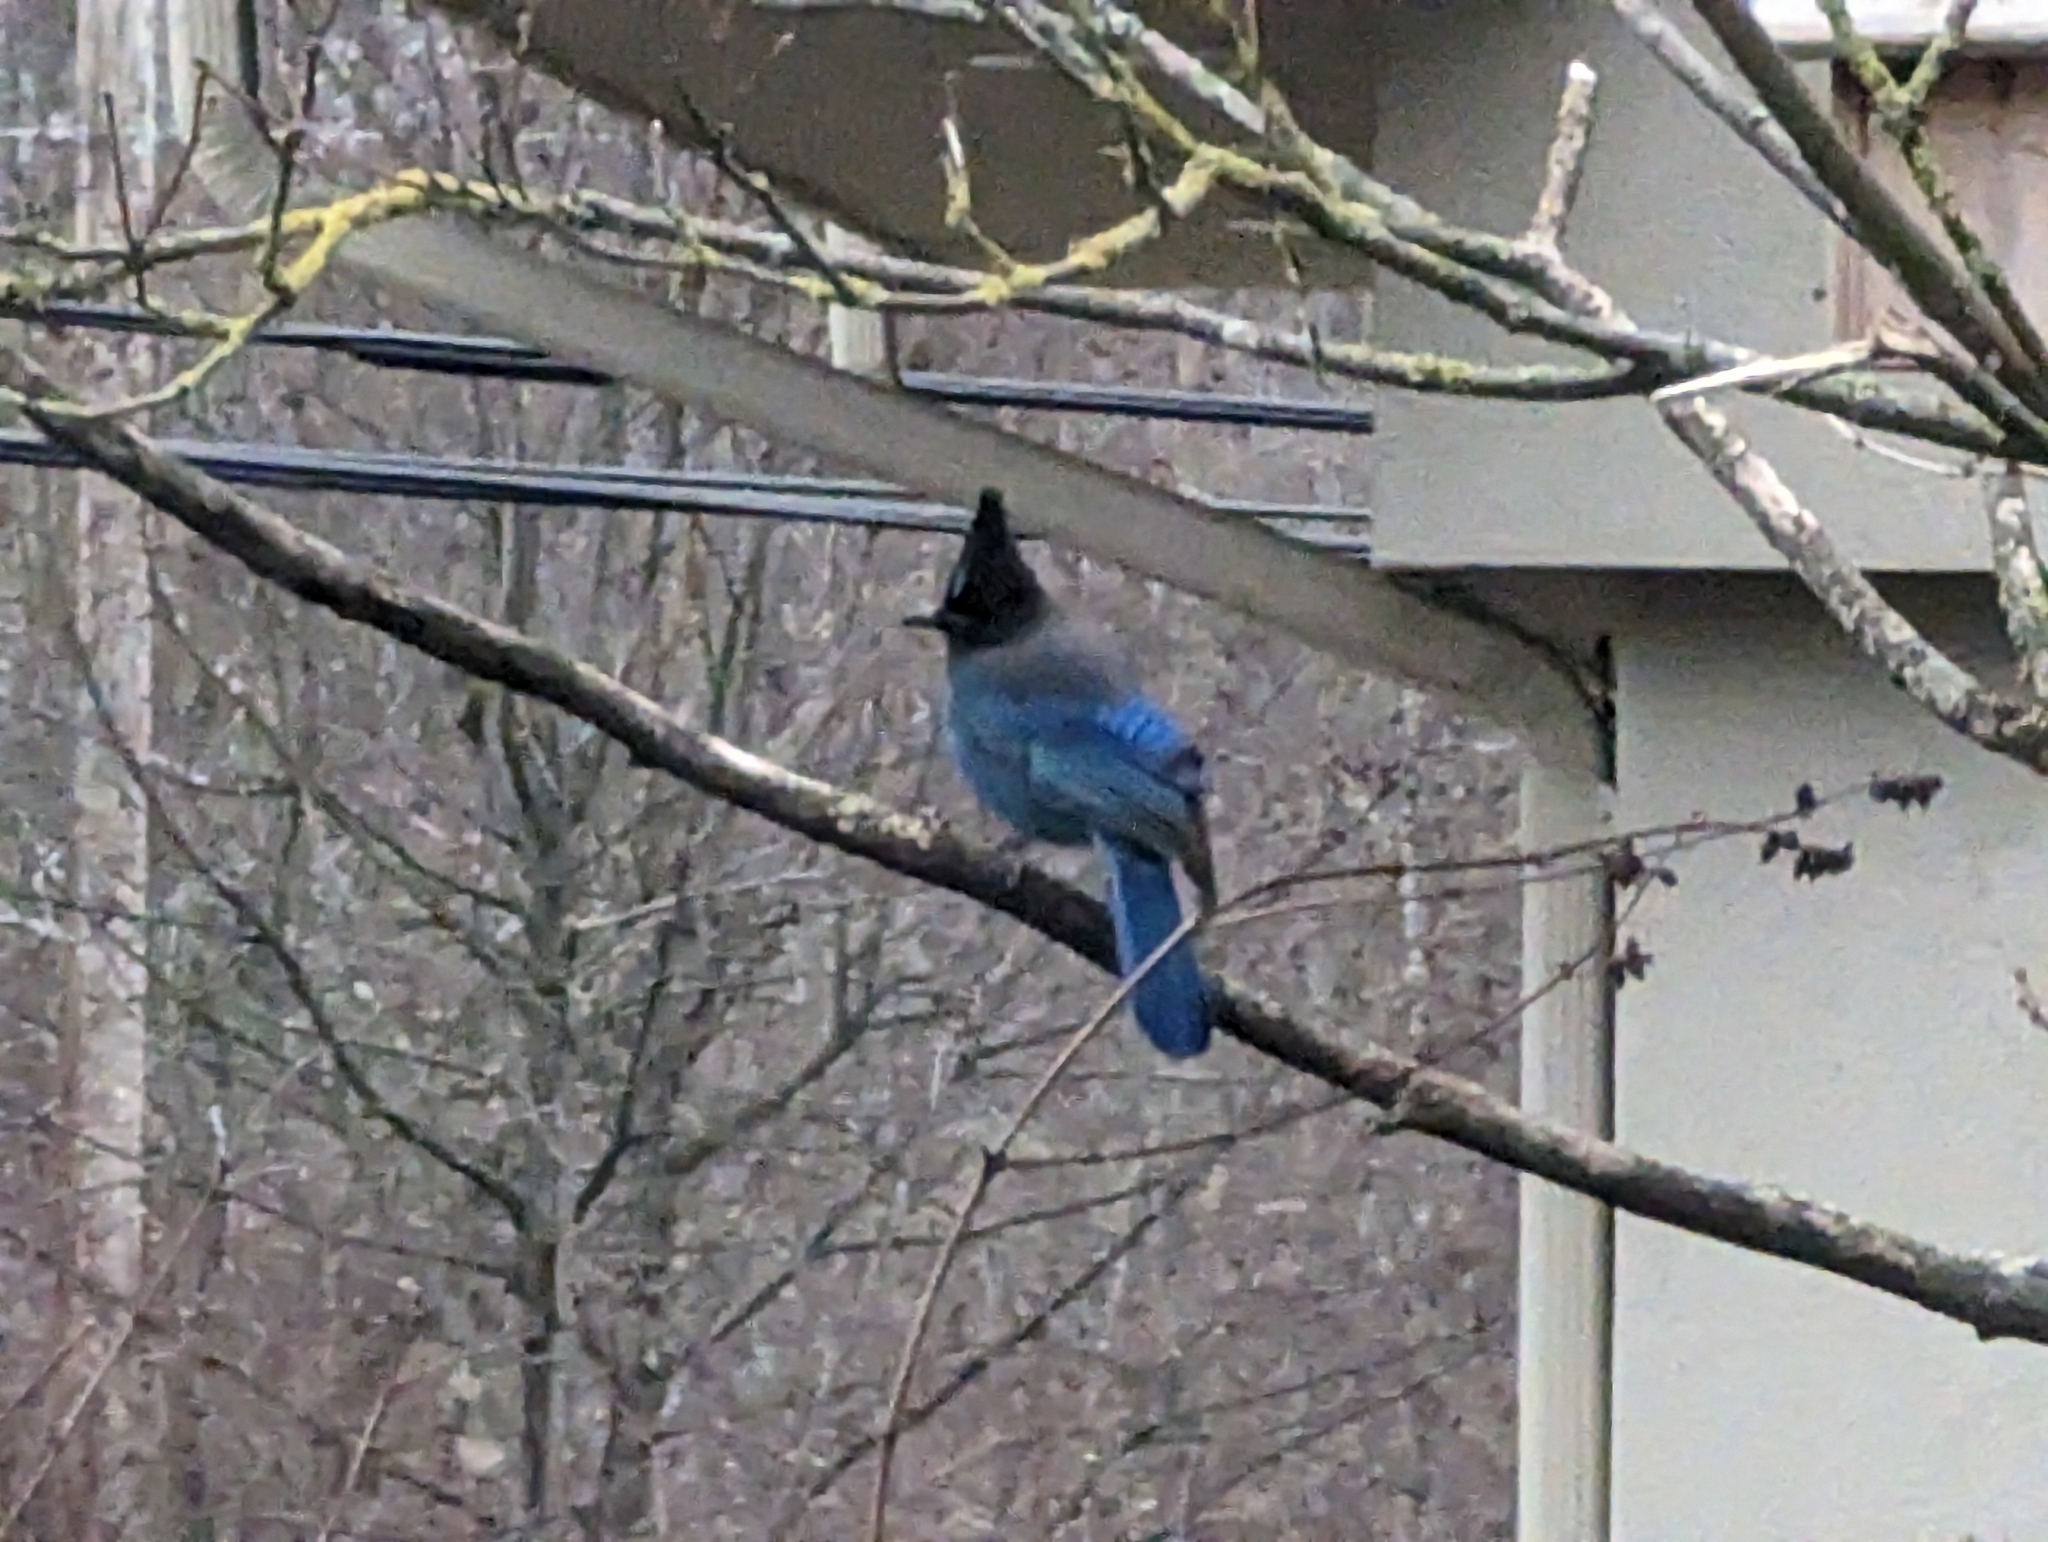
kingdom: Animalia
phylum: Chordata
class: Aves
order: Passeriformes
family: Corvidae
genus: Cyanocitta
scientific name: Cyanocitta stelleri
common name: Steller's jay
